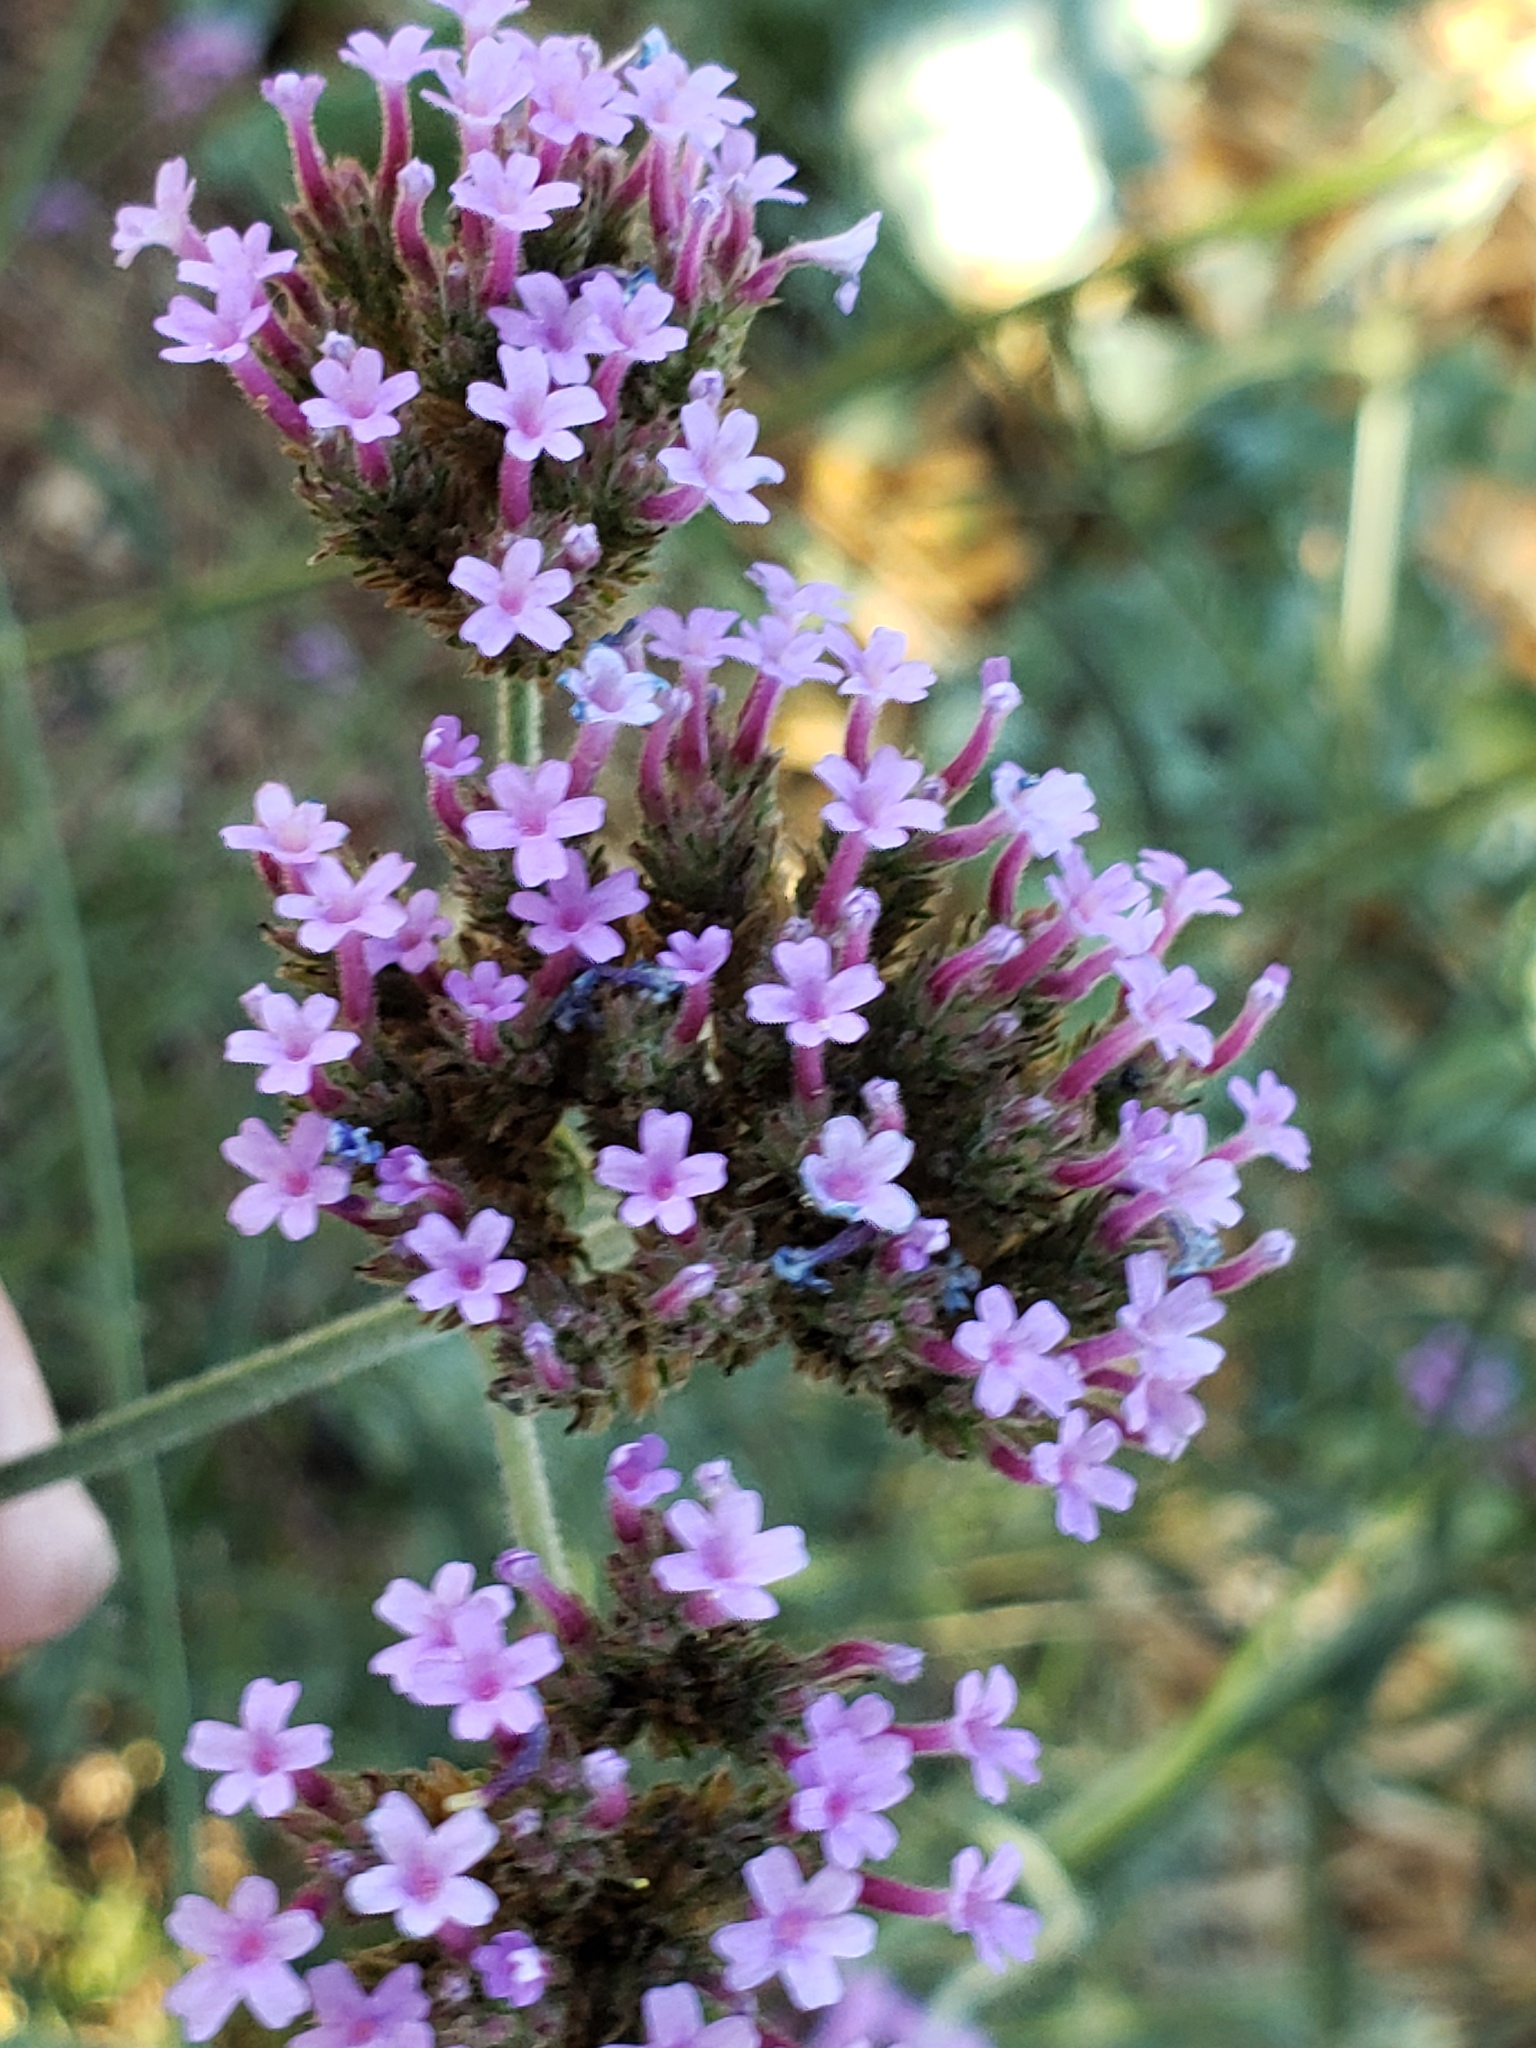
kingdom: Plantae
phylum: Tracheophyta
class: Magnoliopsida
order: Lamiales
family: Verbenaceae
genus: Verbena
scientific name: Verbena bonariensis
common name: Purpletop vervain
